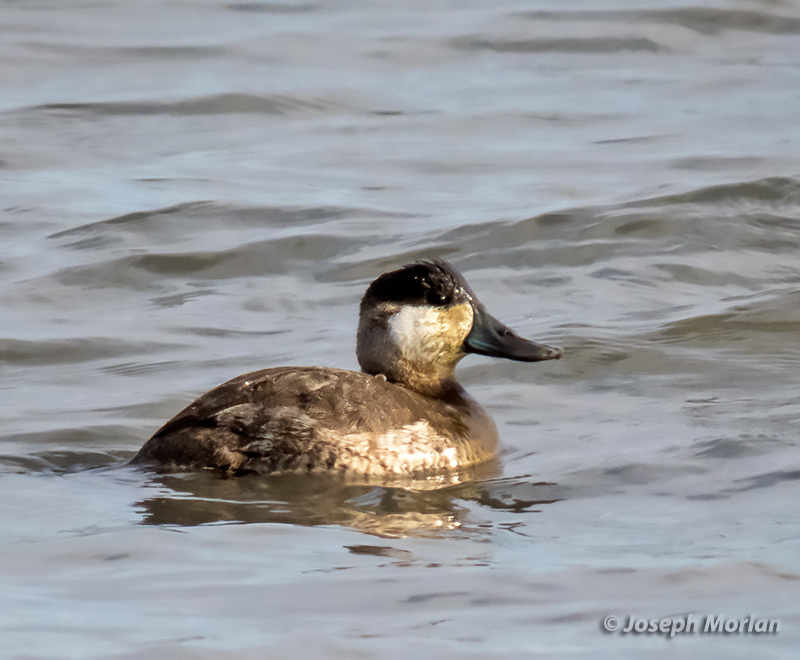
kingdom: Animalia
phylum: Chordata
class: Aves
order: Anseriformes
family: Anatidae
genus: Oxyura
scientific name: Oxyura jamaicensis
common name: Ruddy duck
